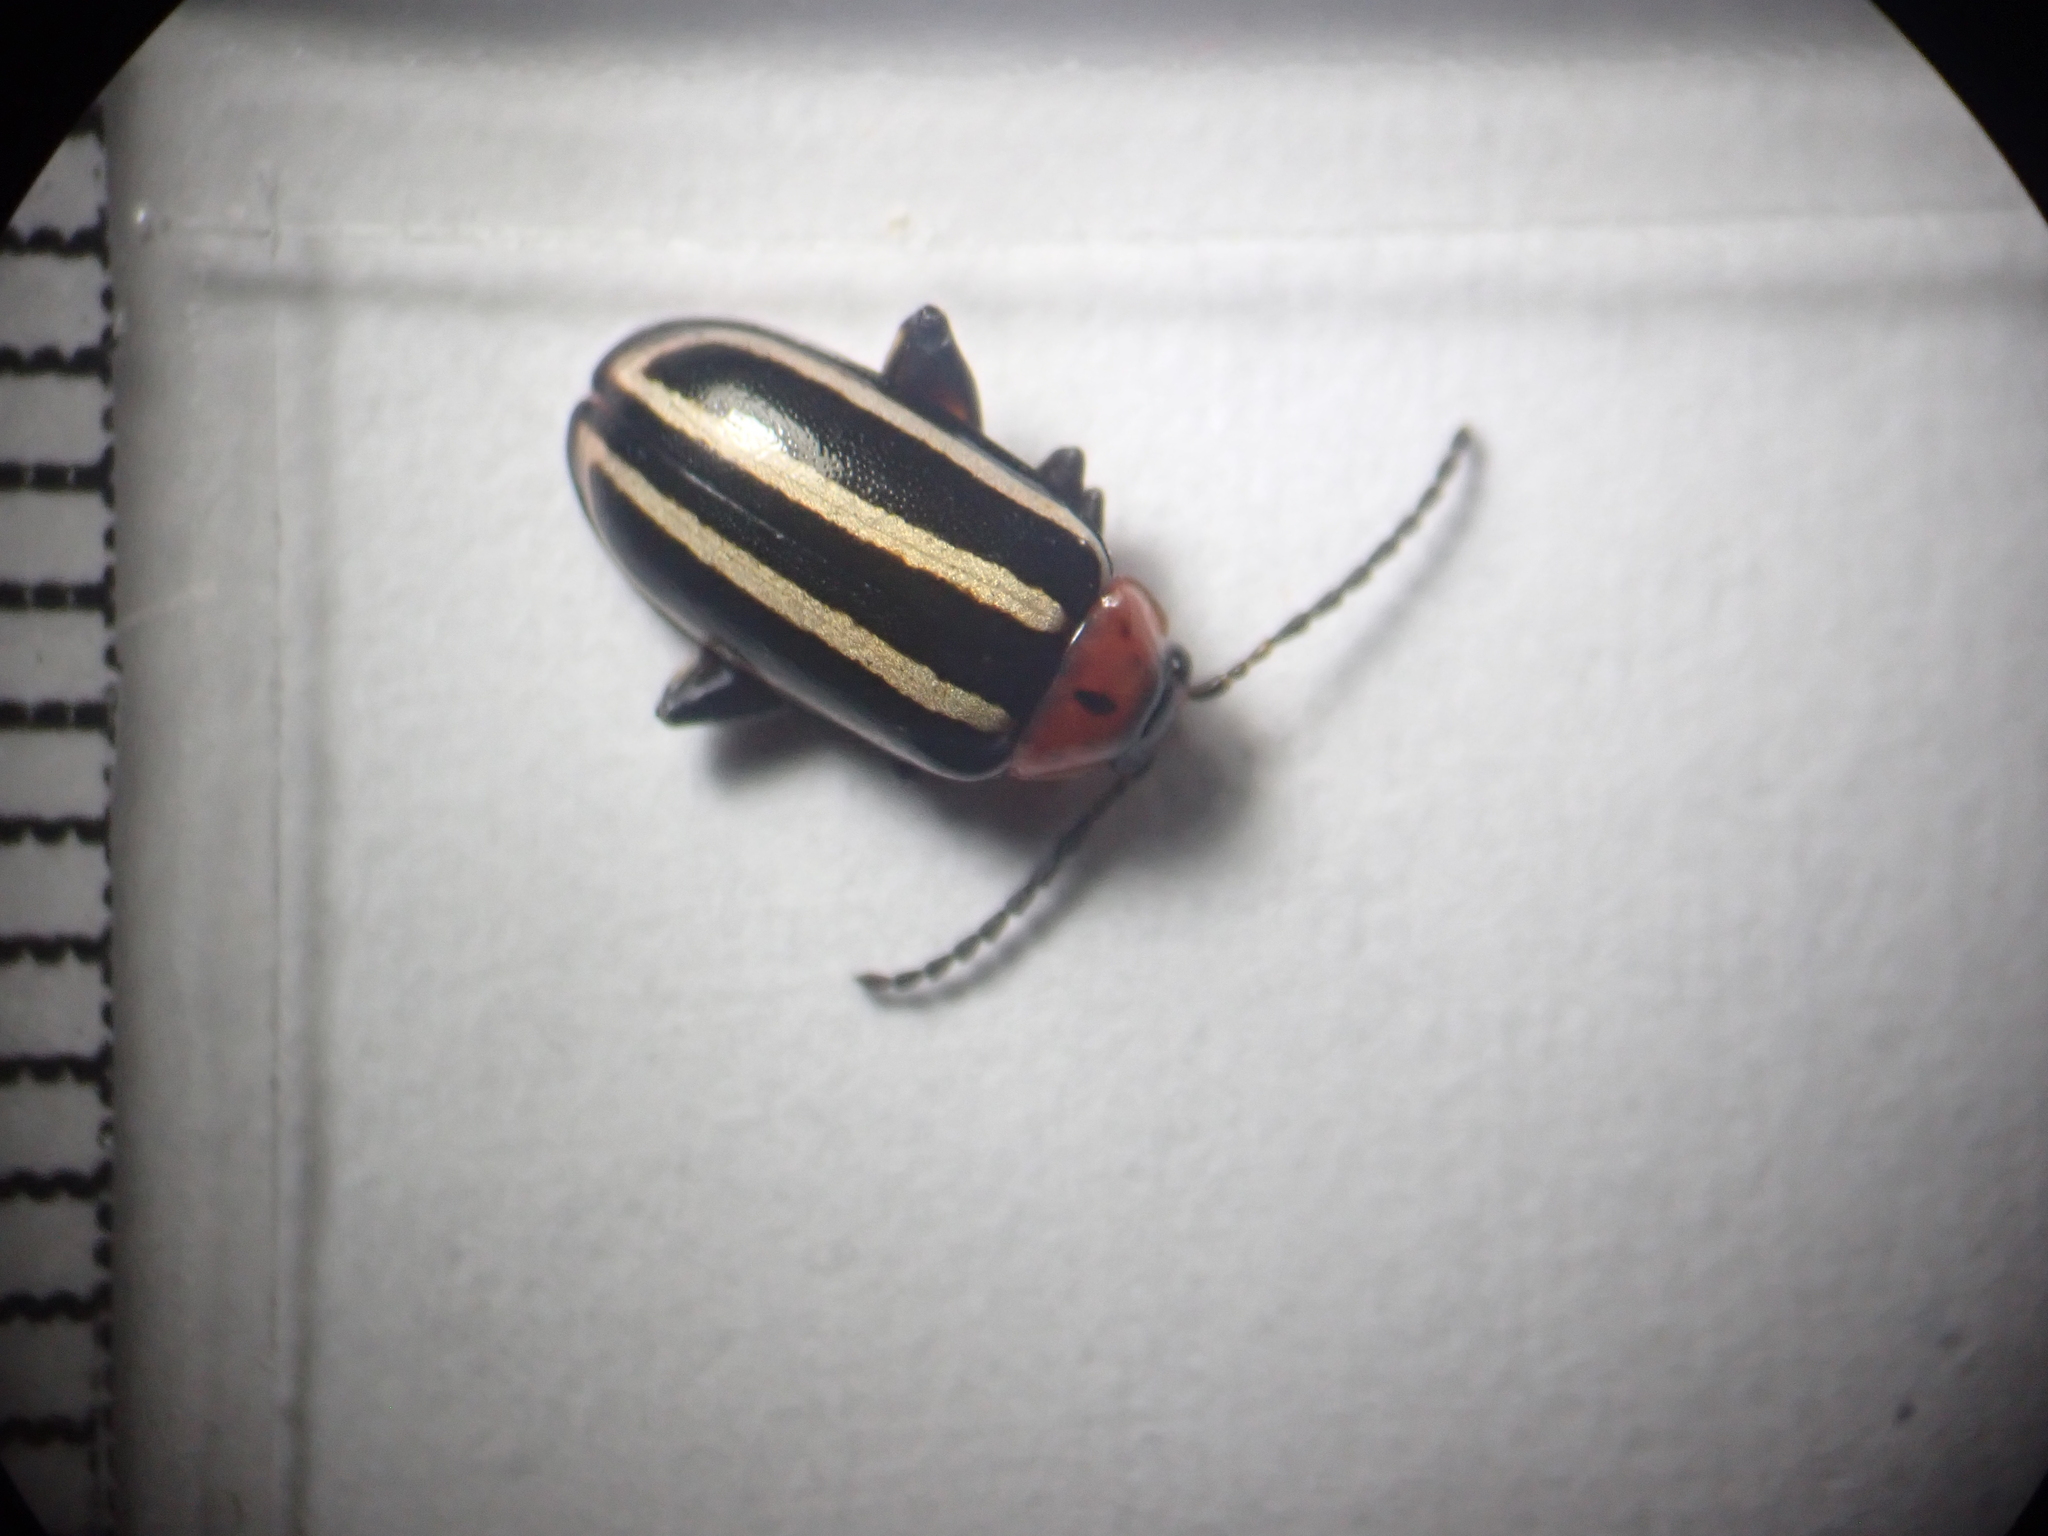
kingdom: Animalia
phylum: Arthropoda
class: Insecta
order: Coleoptera
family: Chrysomelidae
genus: Disonycha
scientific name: Disonycha glabrata
